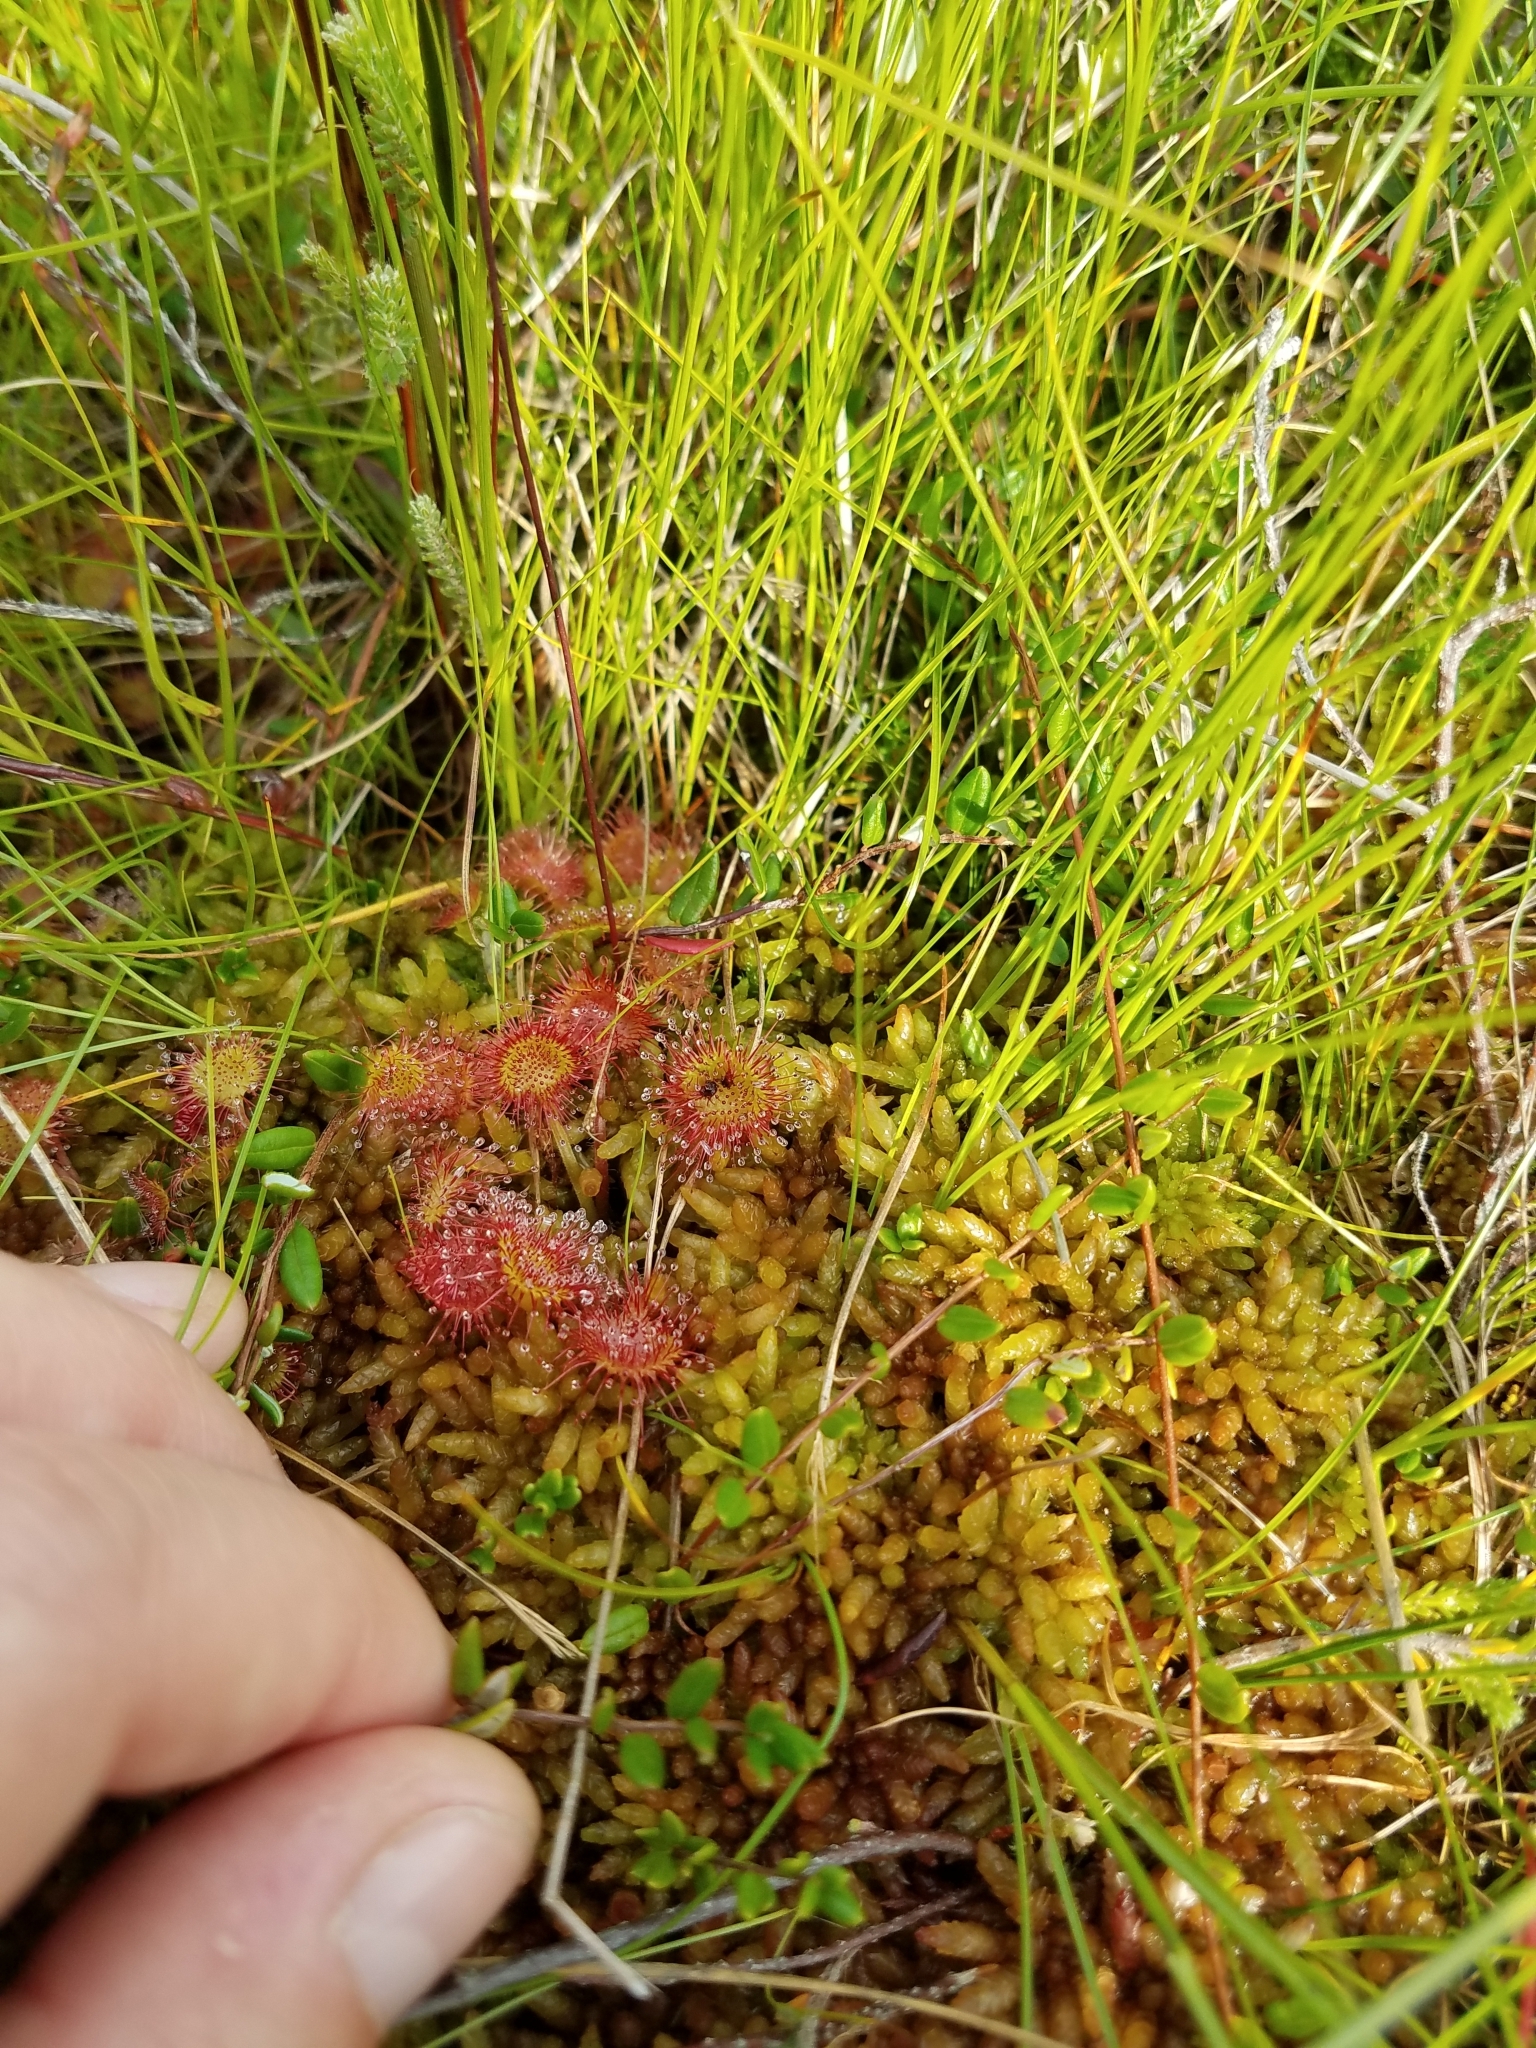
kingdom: Plantae
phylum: Tracheophyta
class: Magnoliopsida
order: Caryophyllales
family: Droseraceae
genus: Drosera
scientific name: Drosera rotundifolia
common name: Round-leaved sundew
